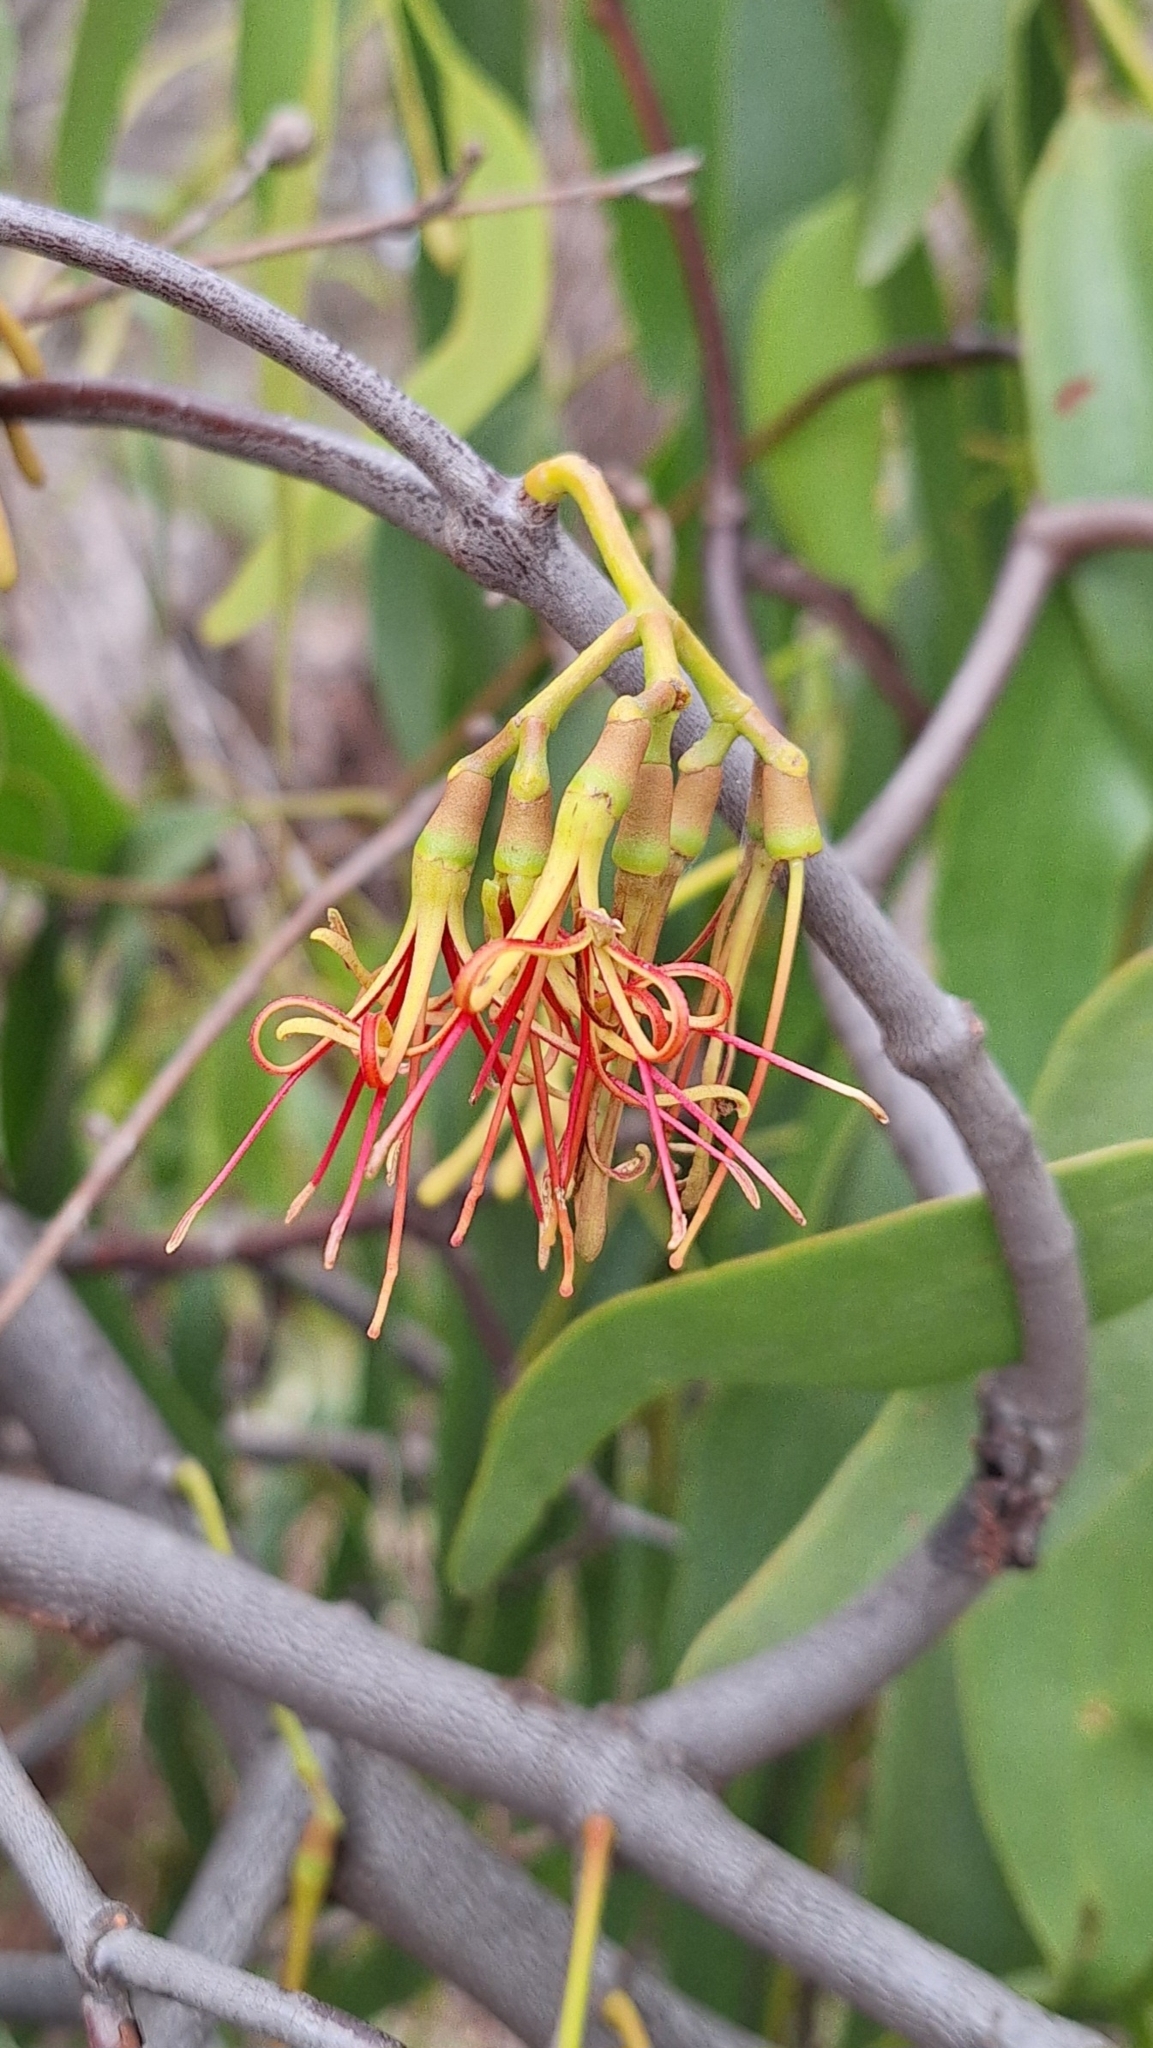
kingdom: Plantae
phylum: Tracheophyta
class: Magnoliopsida
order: Santalales
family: Loranthaceae
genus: Amyema
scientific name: Amyema miquelii
